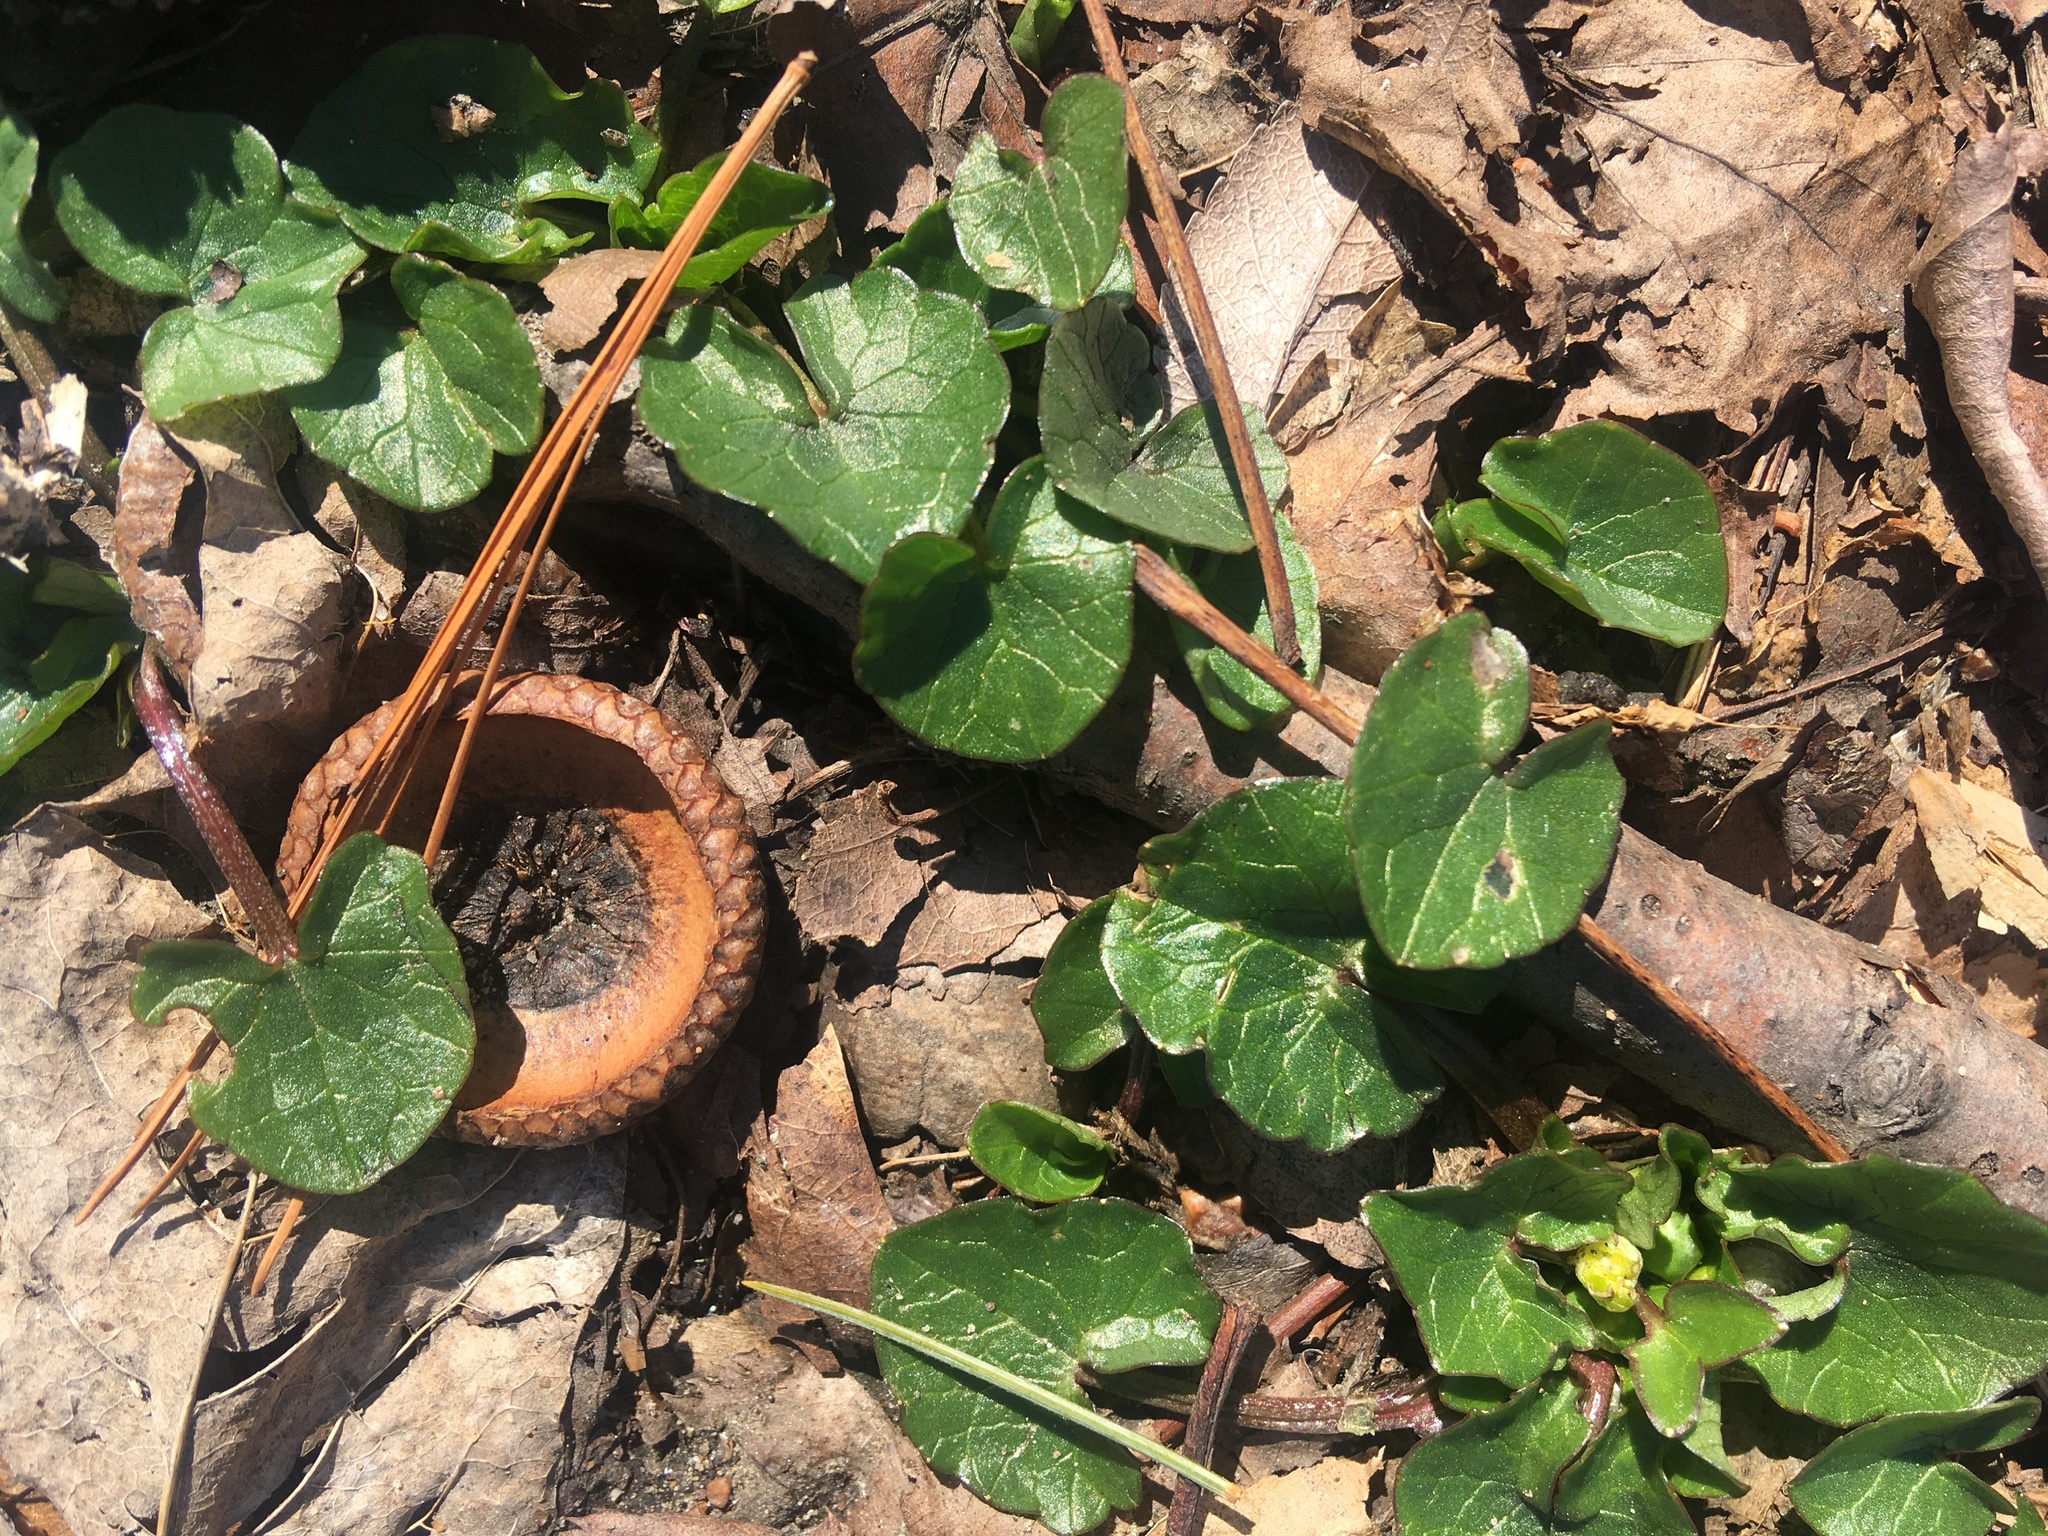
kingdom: Plantae
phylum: Tracheophyta
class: Magnoliopsida
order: Ranunculales
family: Ranunculaceae
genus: Ficaria
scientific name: Ficaria verna
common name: Lesser celandine
